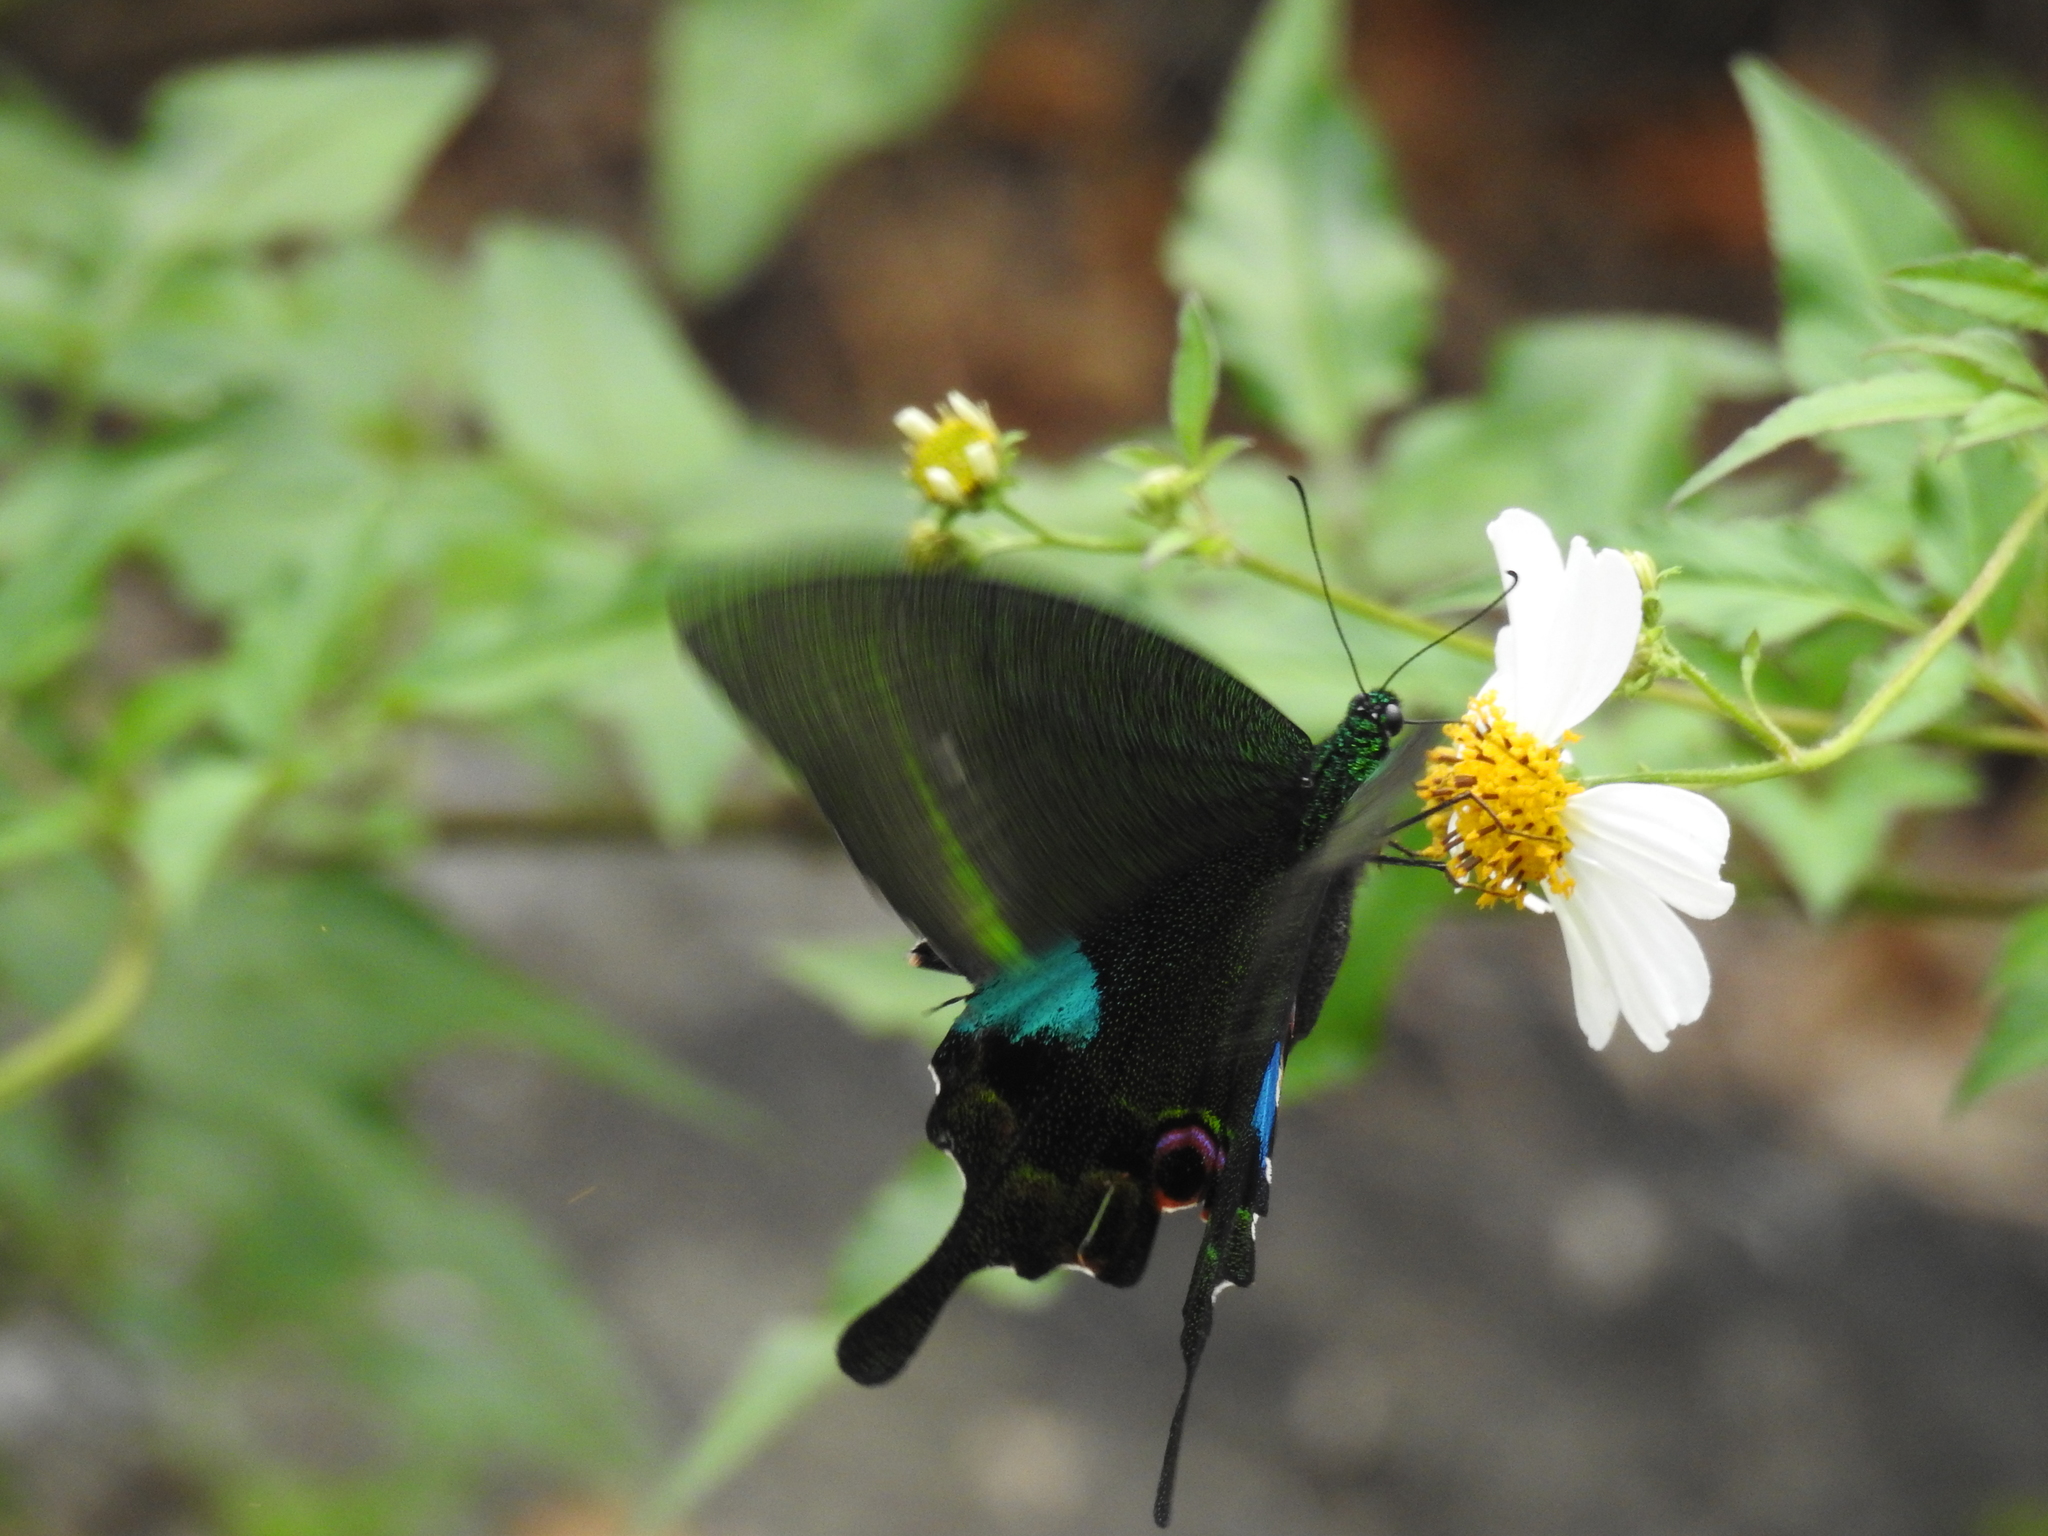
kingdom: Animalia
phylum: Arthropoda
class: Insecta
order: Lepidoptera
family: Papilionidae
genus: Papilio
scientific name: Papilio paris
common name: Paris peacock
